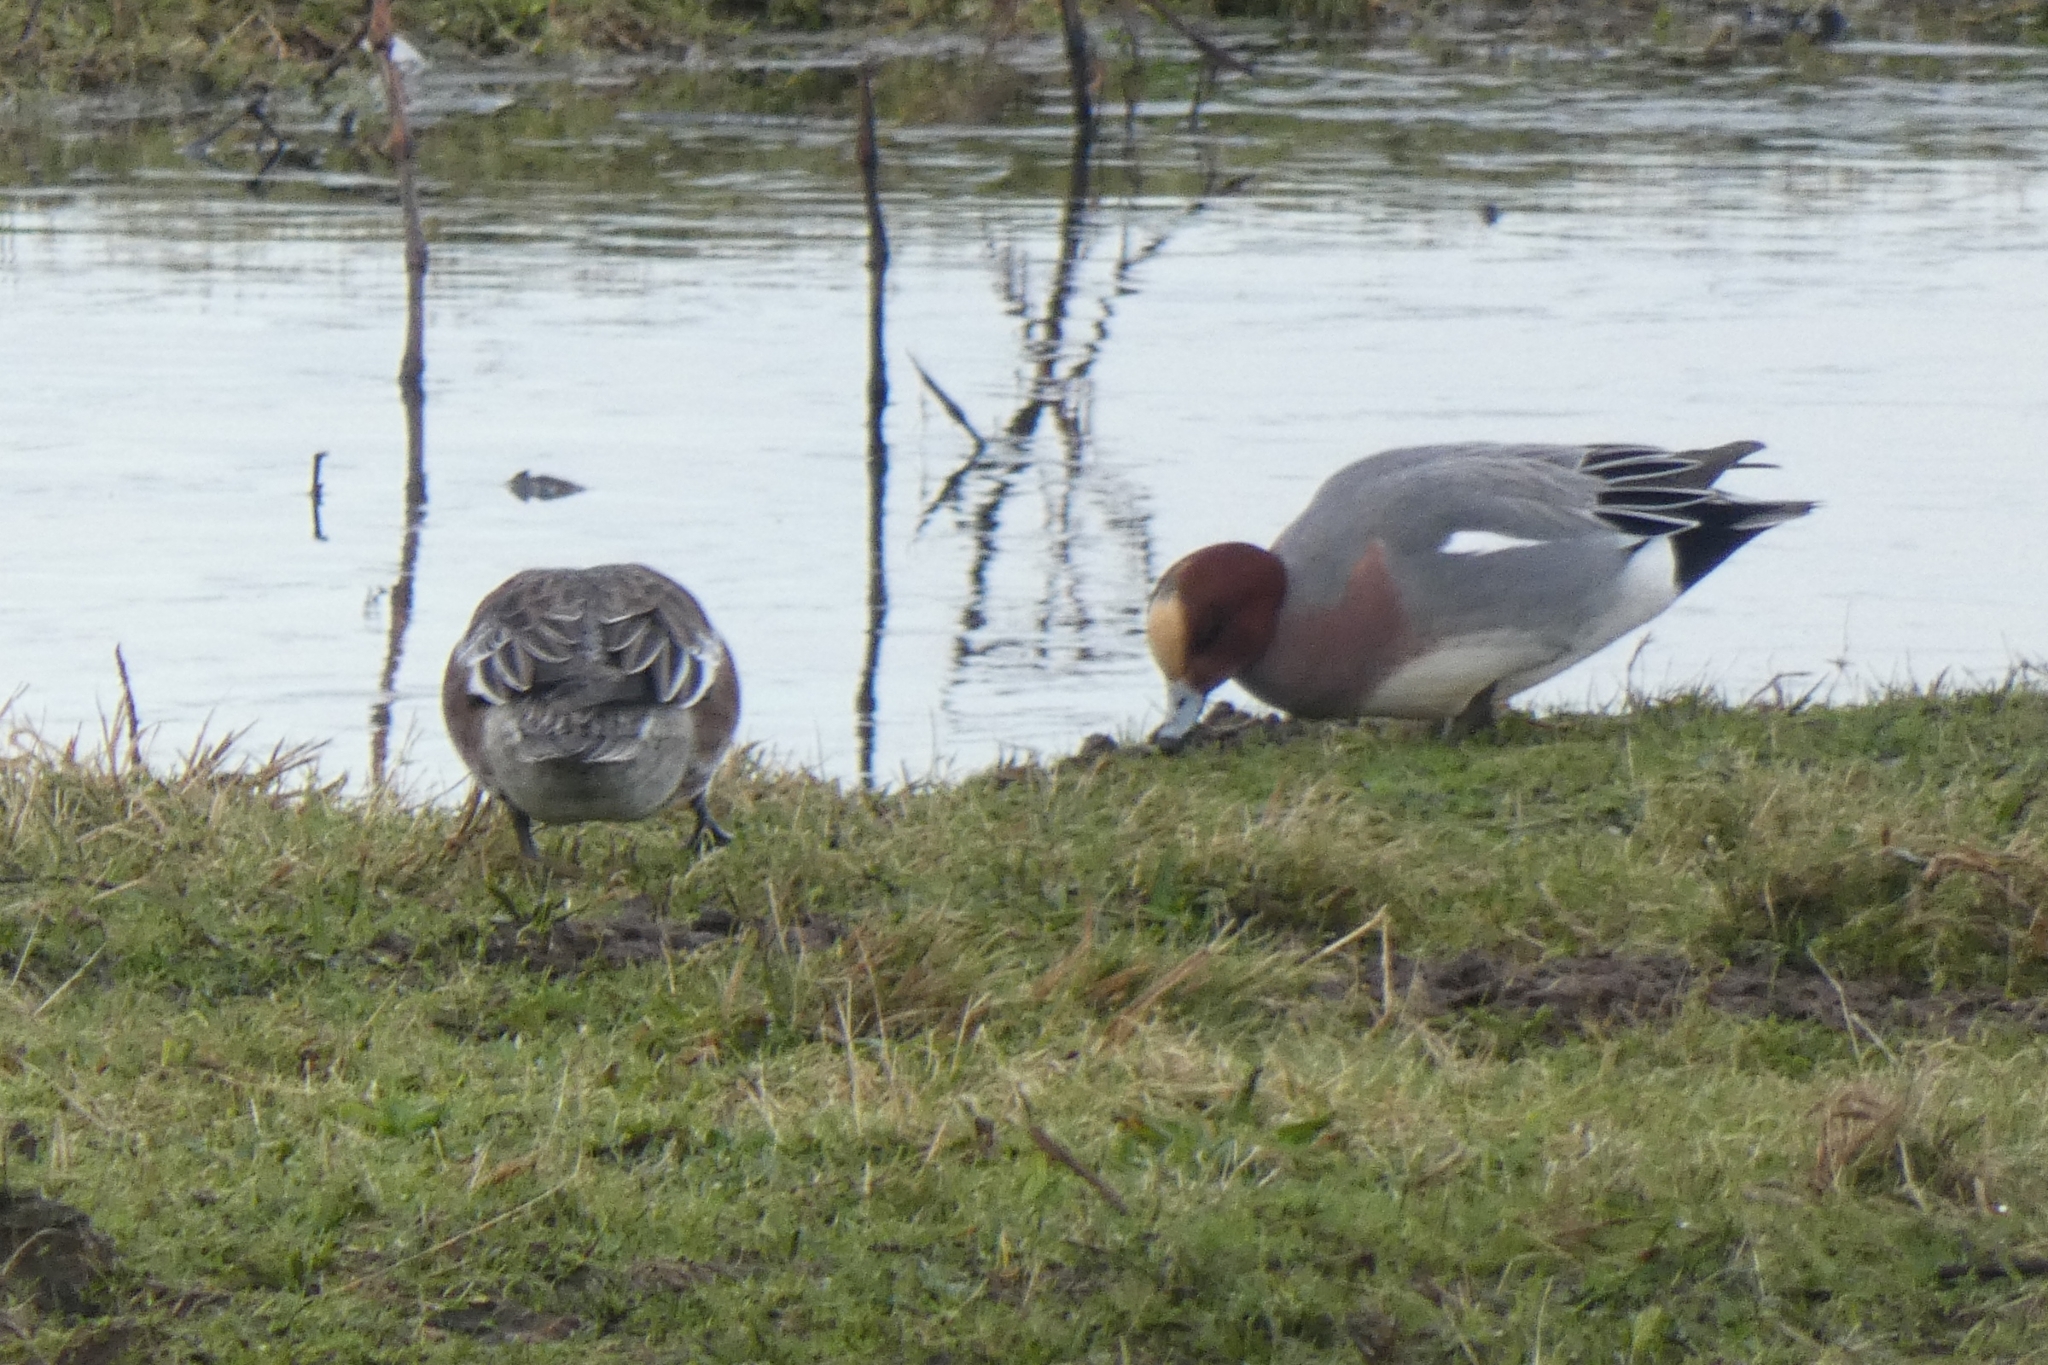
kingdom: Animalia
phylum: Chordata
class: Aves
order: Anseriformes
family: Anatidae
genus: Mareca
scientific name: Mareca penelope
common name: Eurasian wigeon
